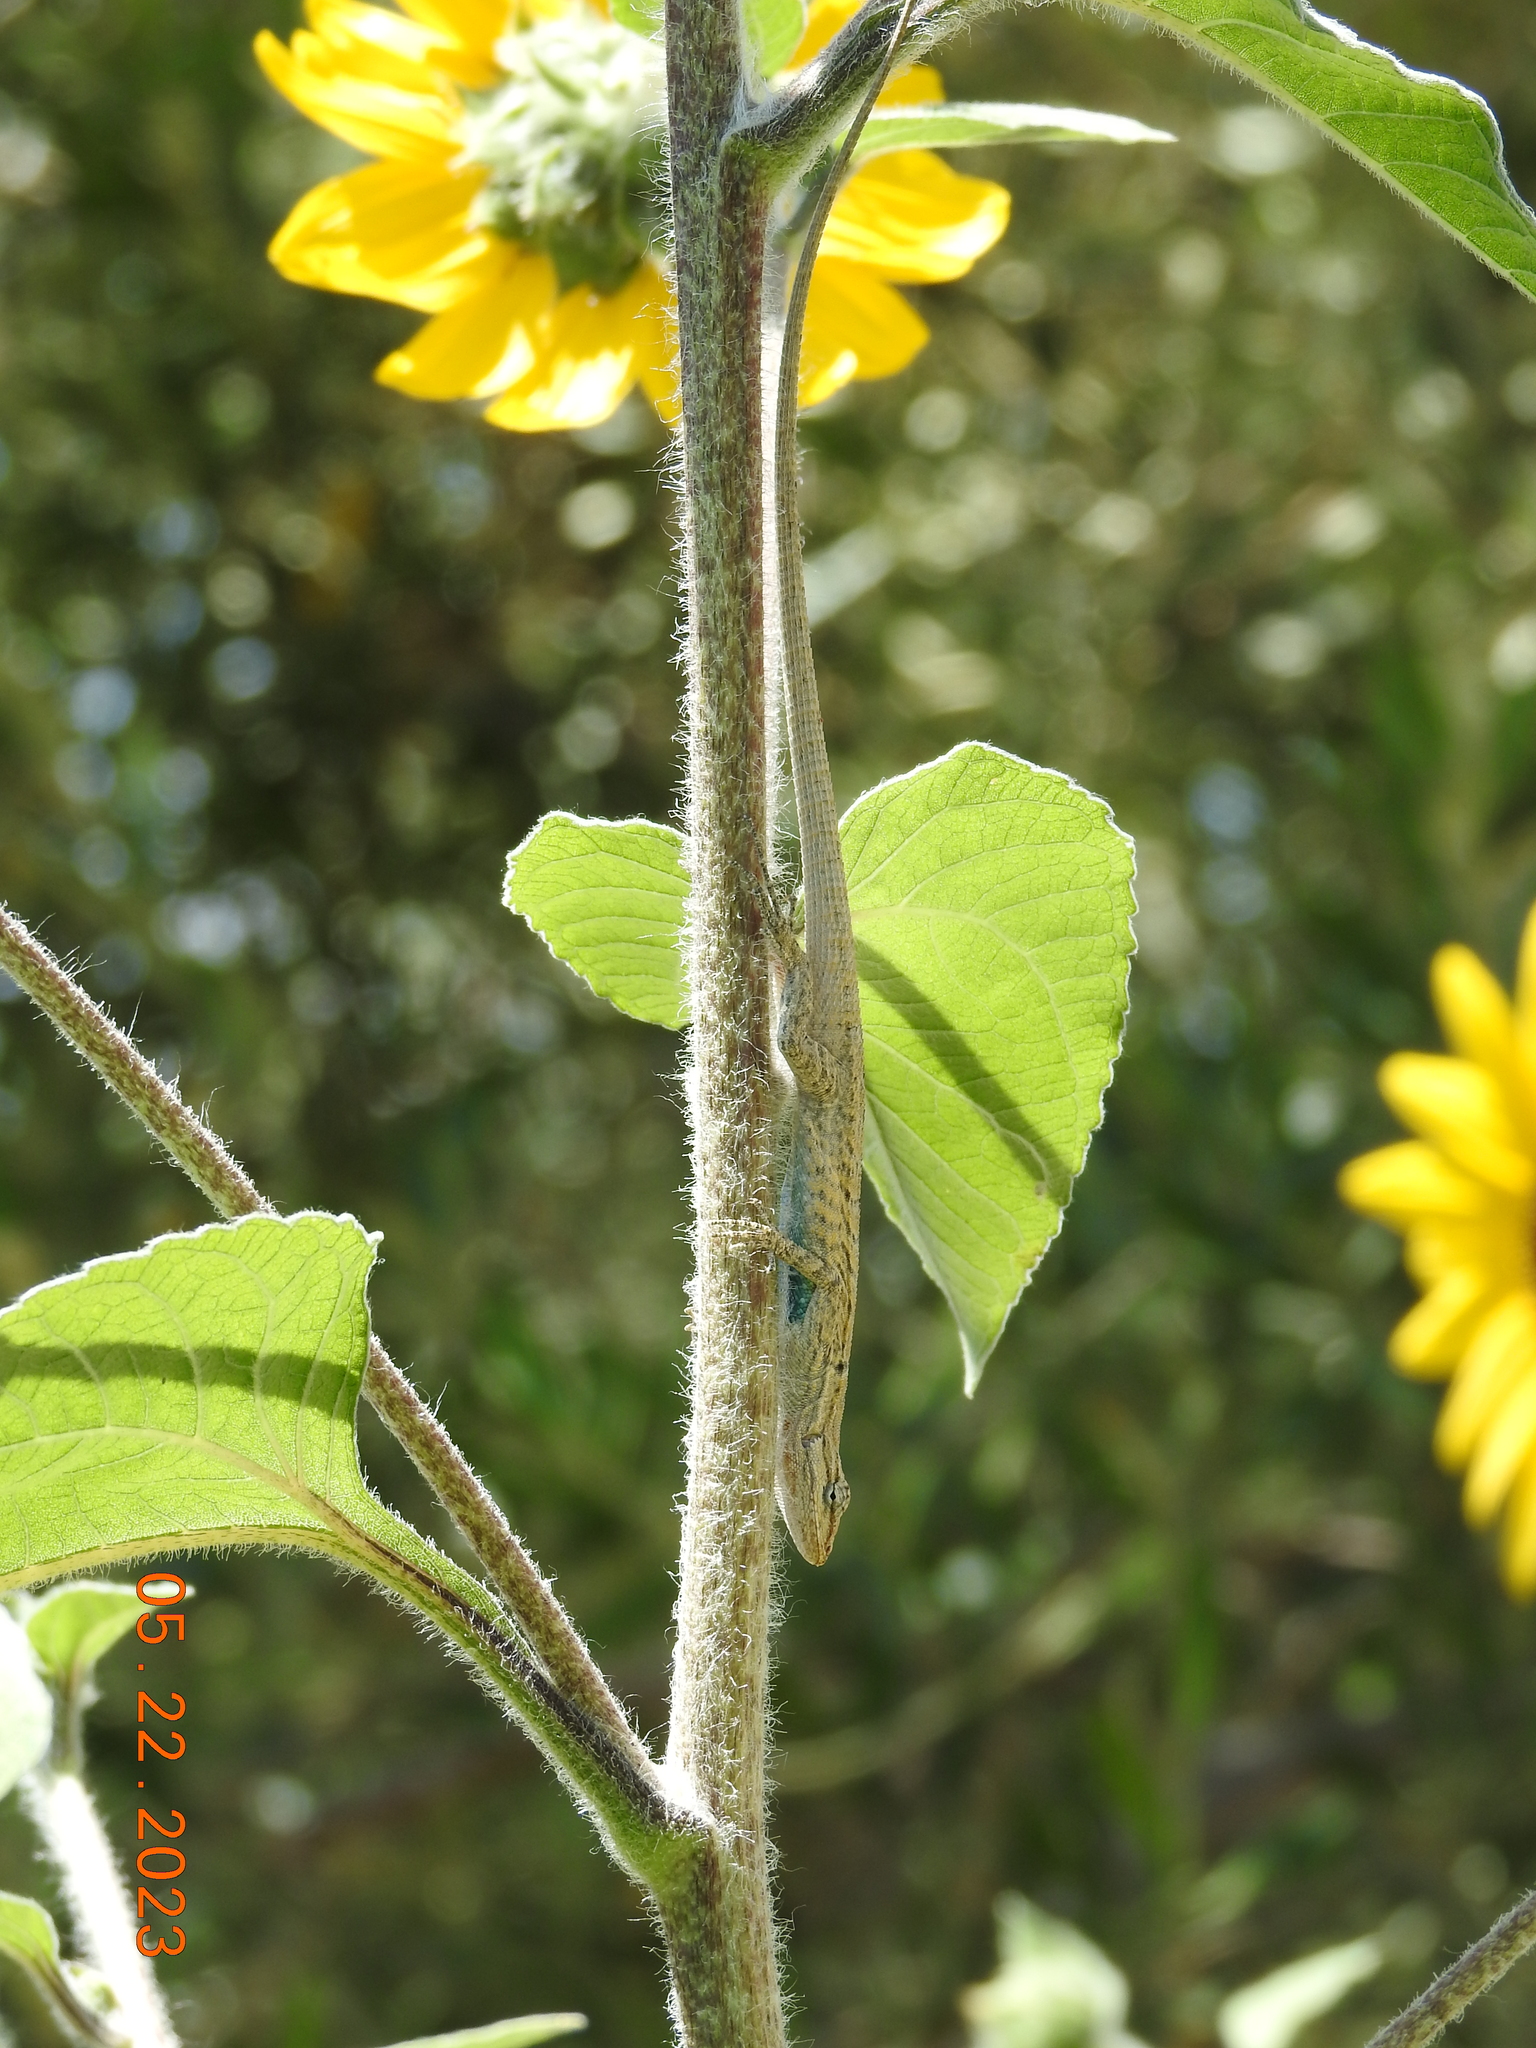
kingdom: Animalia
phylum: Chordata
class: Squamata
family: Phrynosomatidae
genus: Urosaurus
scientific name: Urosaurus graciosus
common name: Long-tailed brush lizard
